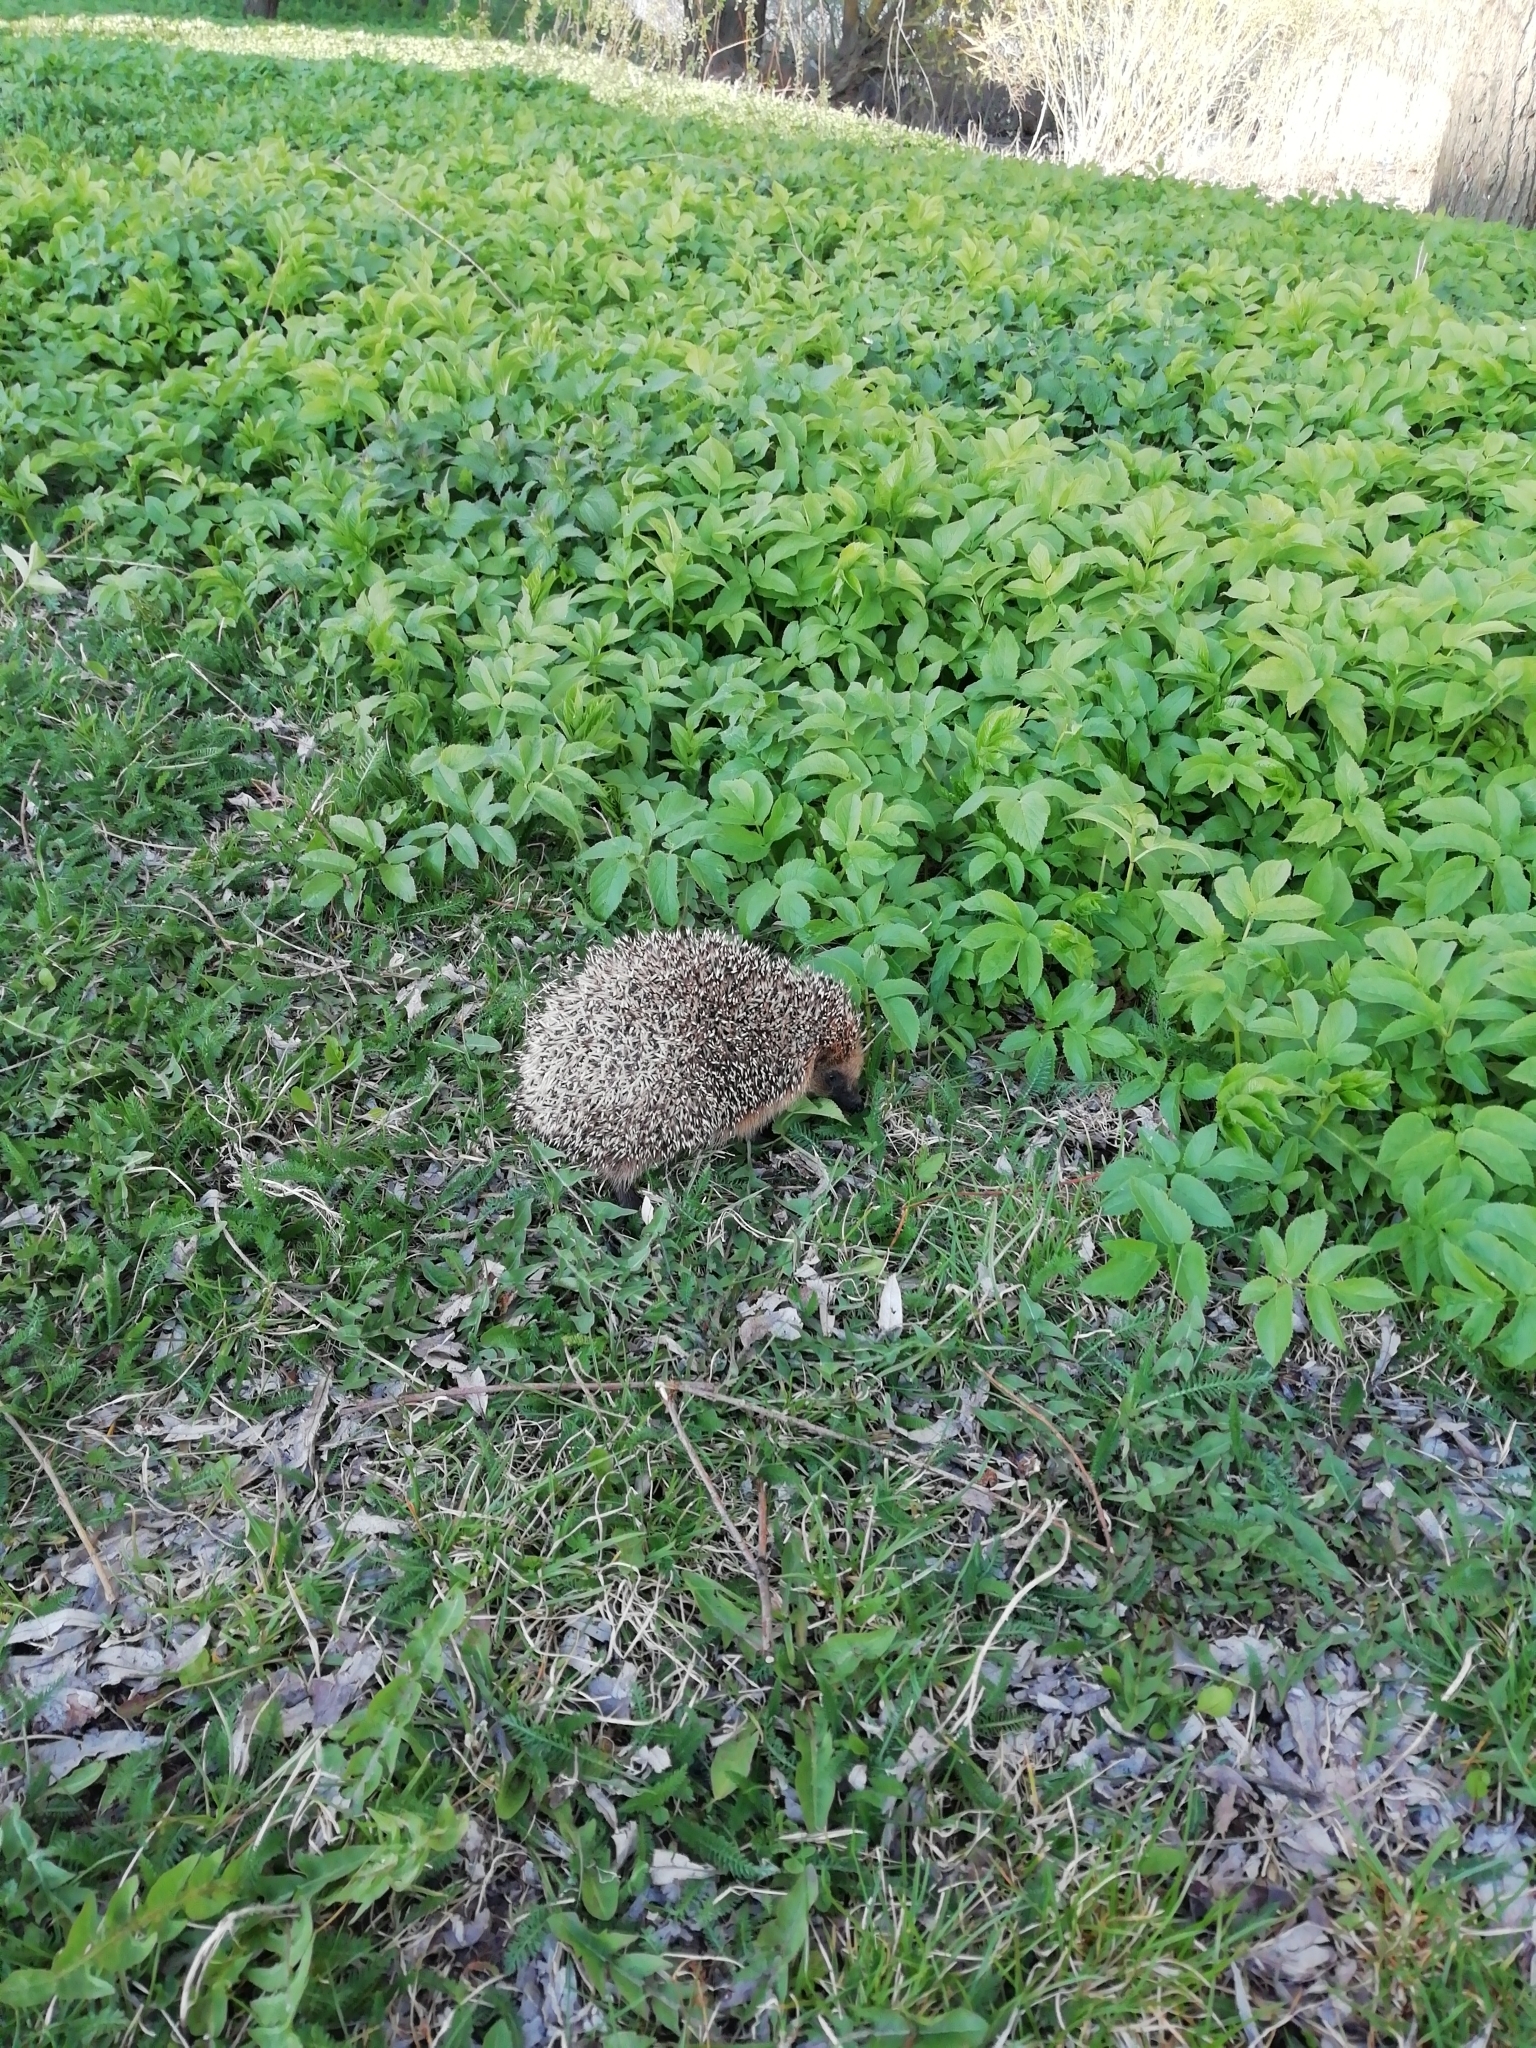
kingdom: Animalia
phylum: Chordata
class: Mammalia
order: Erinaceomorpha
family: Erinaceidae
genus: Erinaceus
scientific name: Erinaceus europaeus
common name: West european hedgehog
